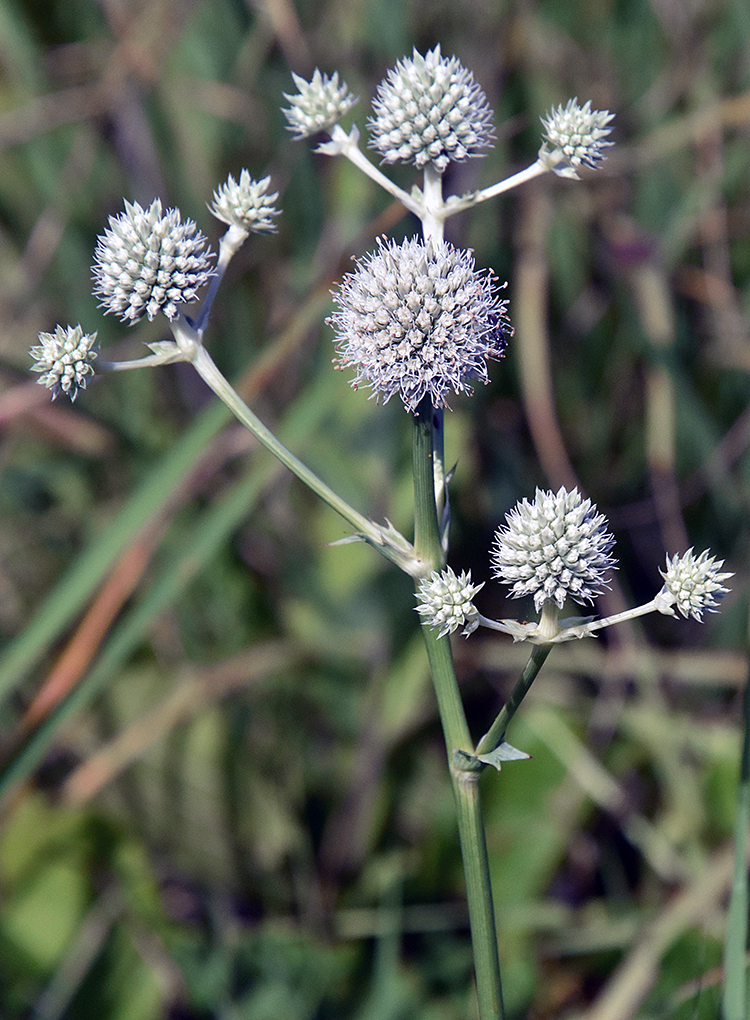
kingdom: Plantae
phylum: Tracheophyta
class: Magnoliopsida
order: Apiales
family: Apiaceae
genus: Eryngium
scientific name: Eryngium yuccifolium
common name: Button eryngo
